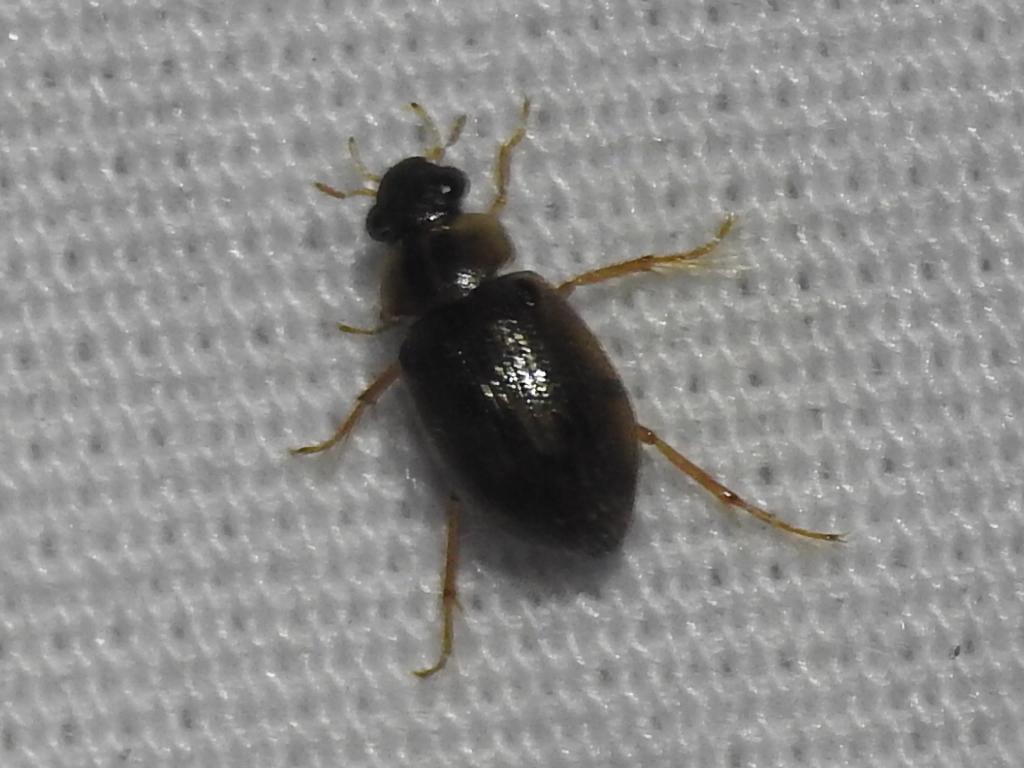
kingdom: Animalia
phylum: Arthropoda
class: Insecta
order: Coleoptera
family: Hydrophilidae
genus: Berosus
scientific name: Berosus
